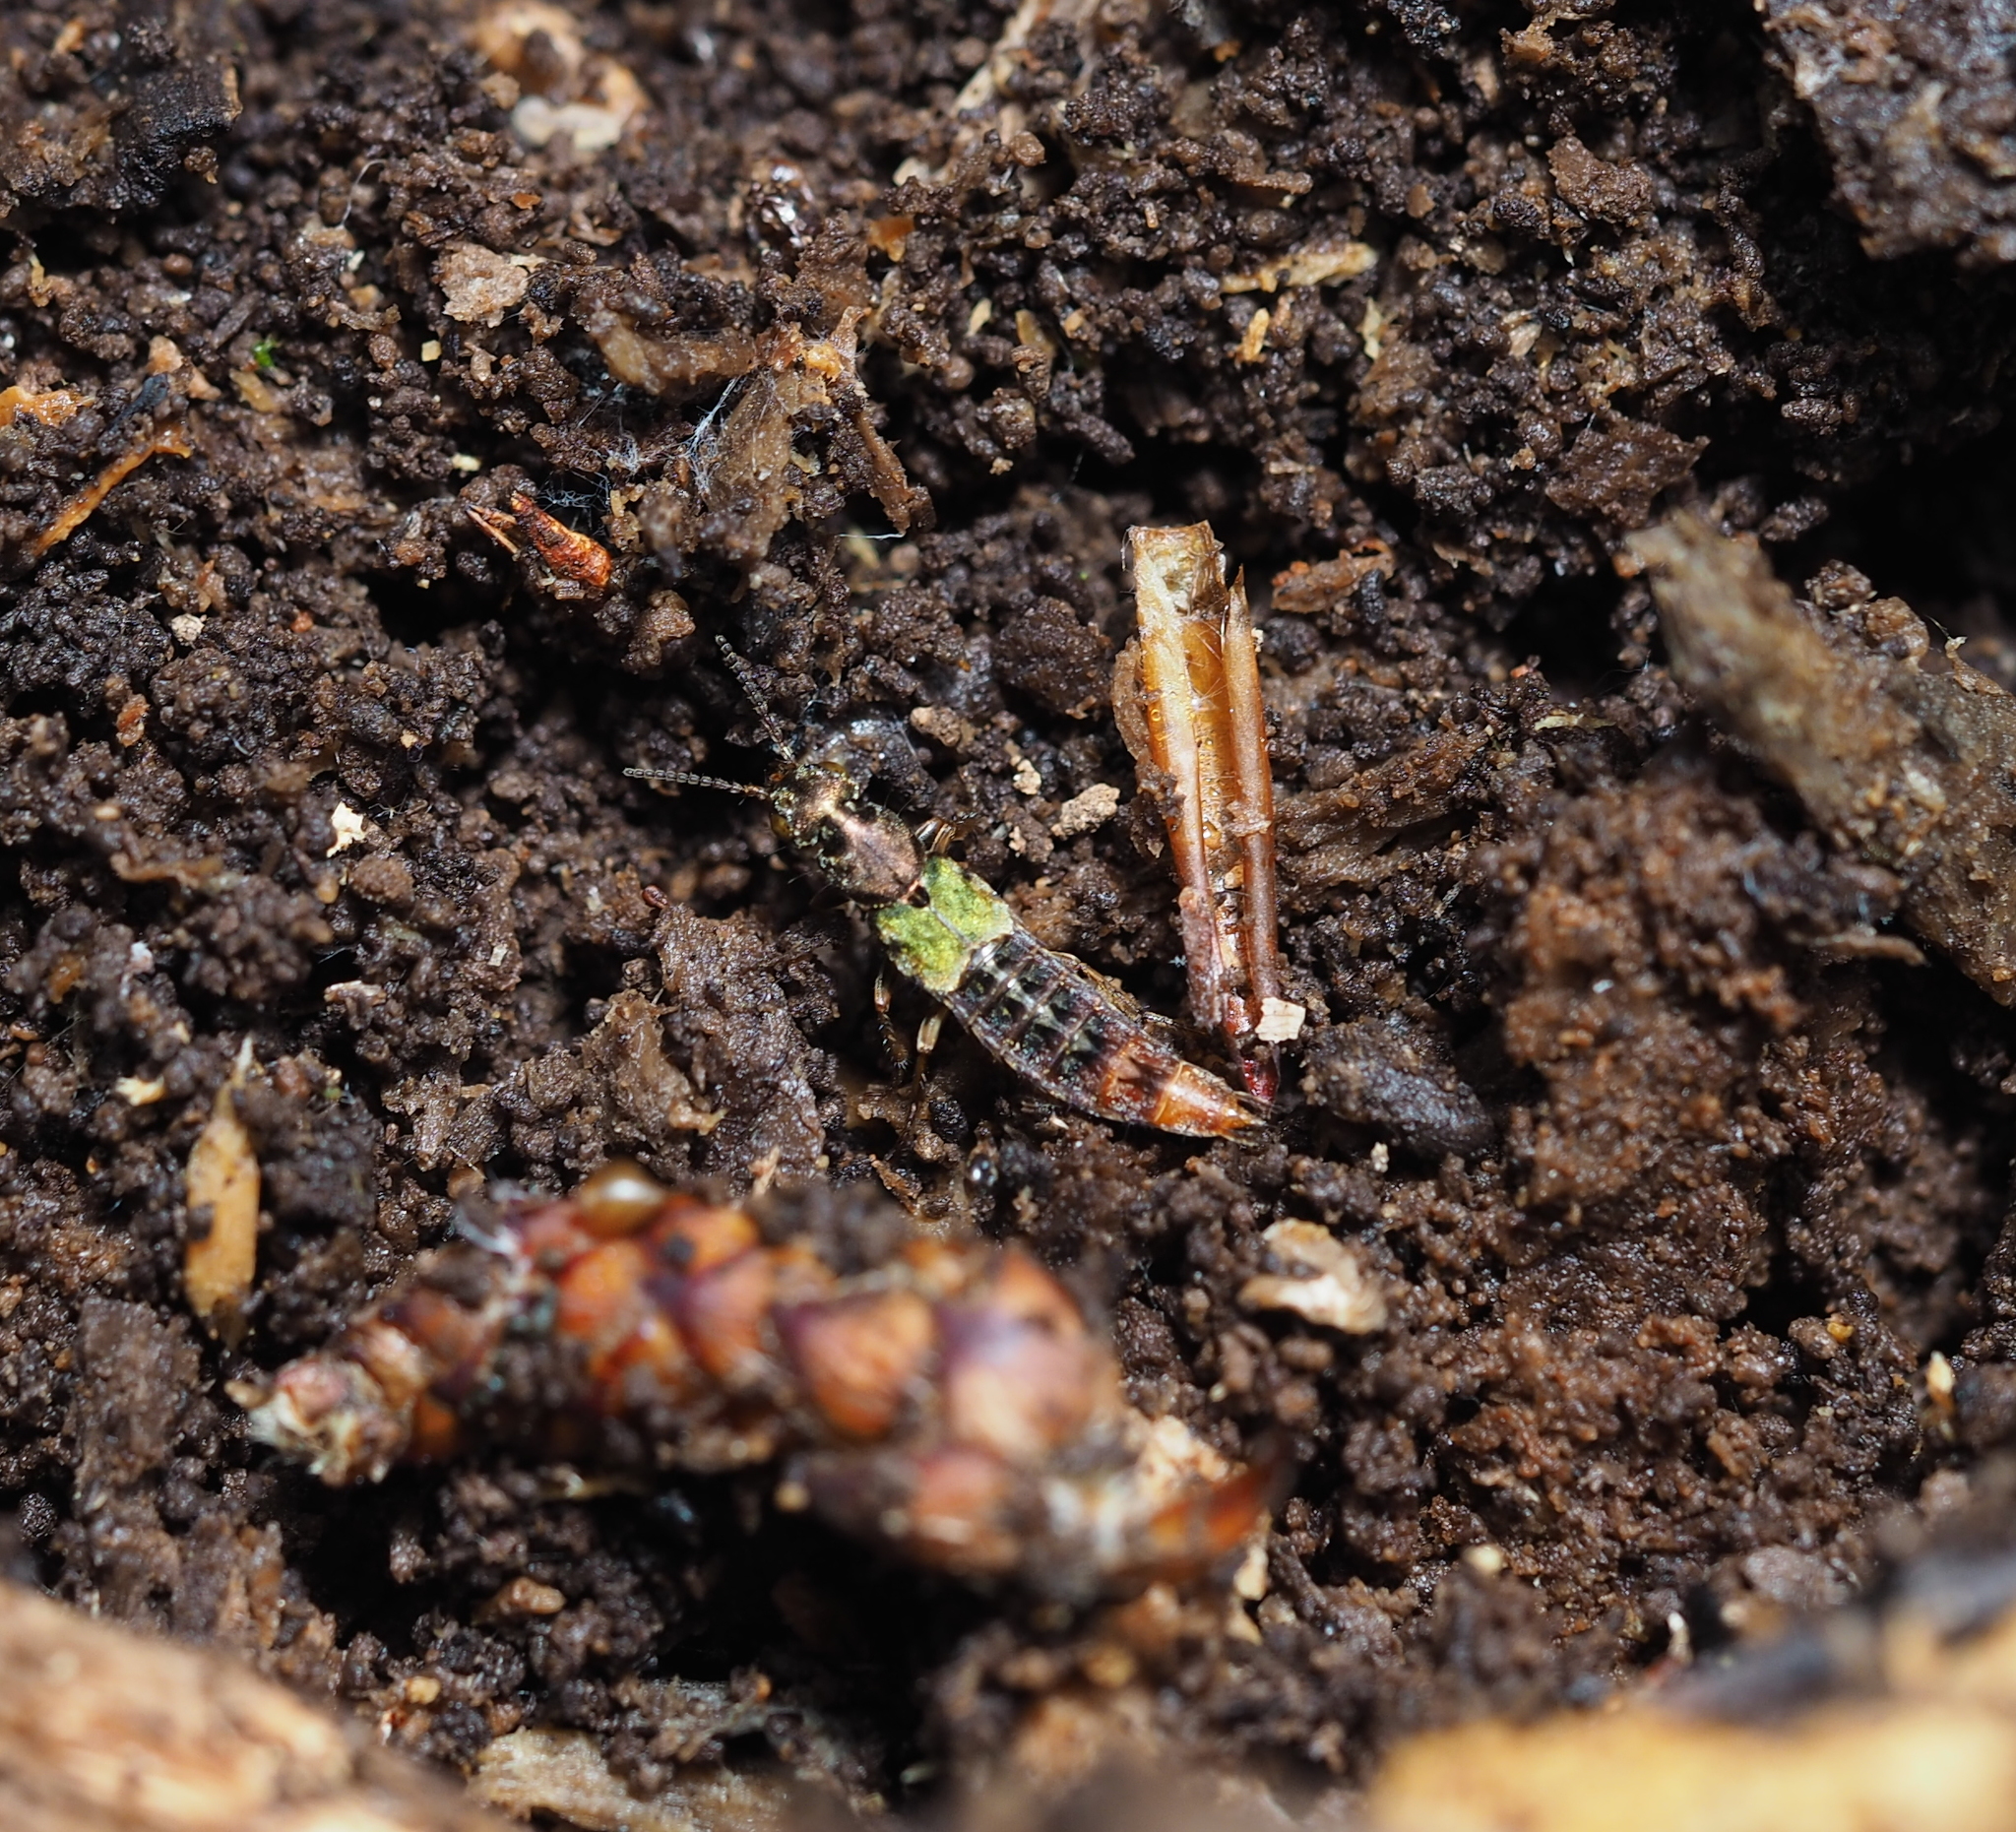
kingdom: Animalia
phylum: Arthropoda
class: Insecta
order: Coleoptera
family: Staphylinidae
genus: Abemus
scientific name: Abemus chloropterus
